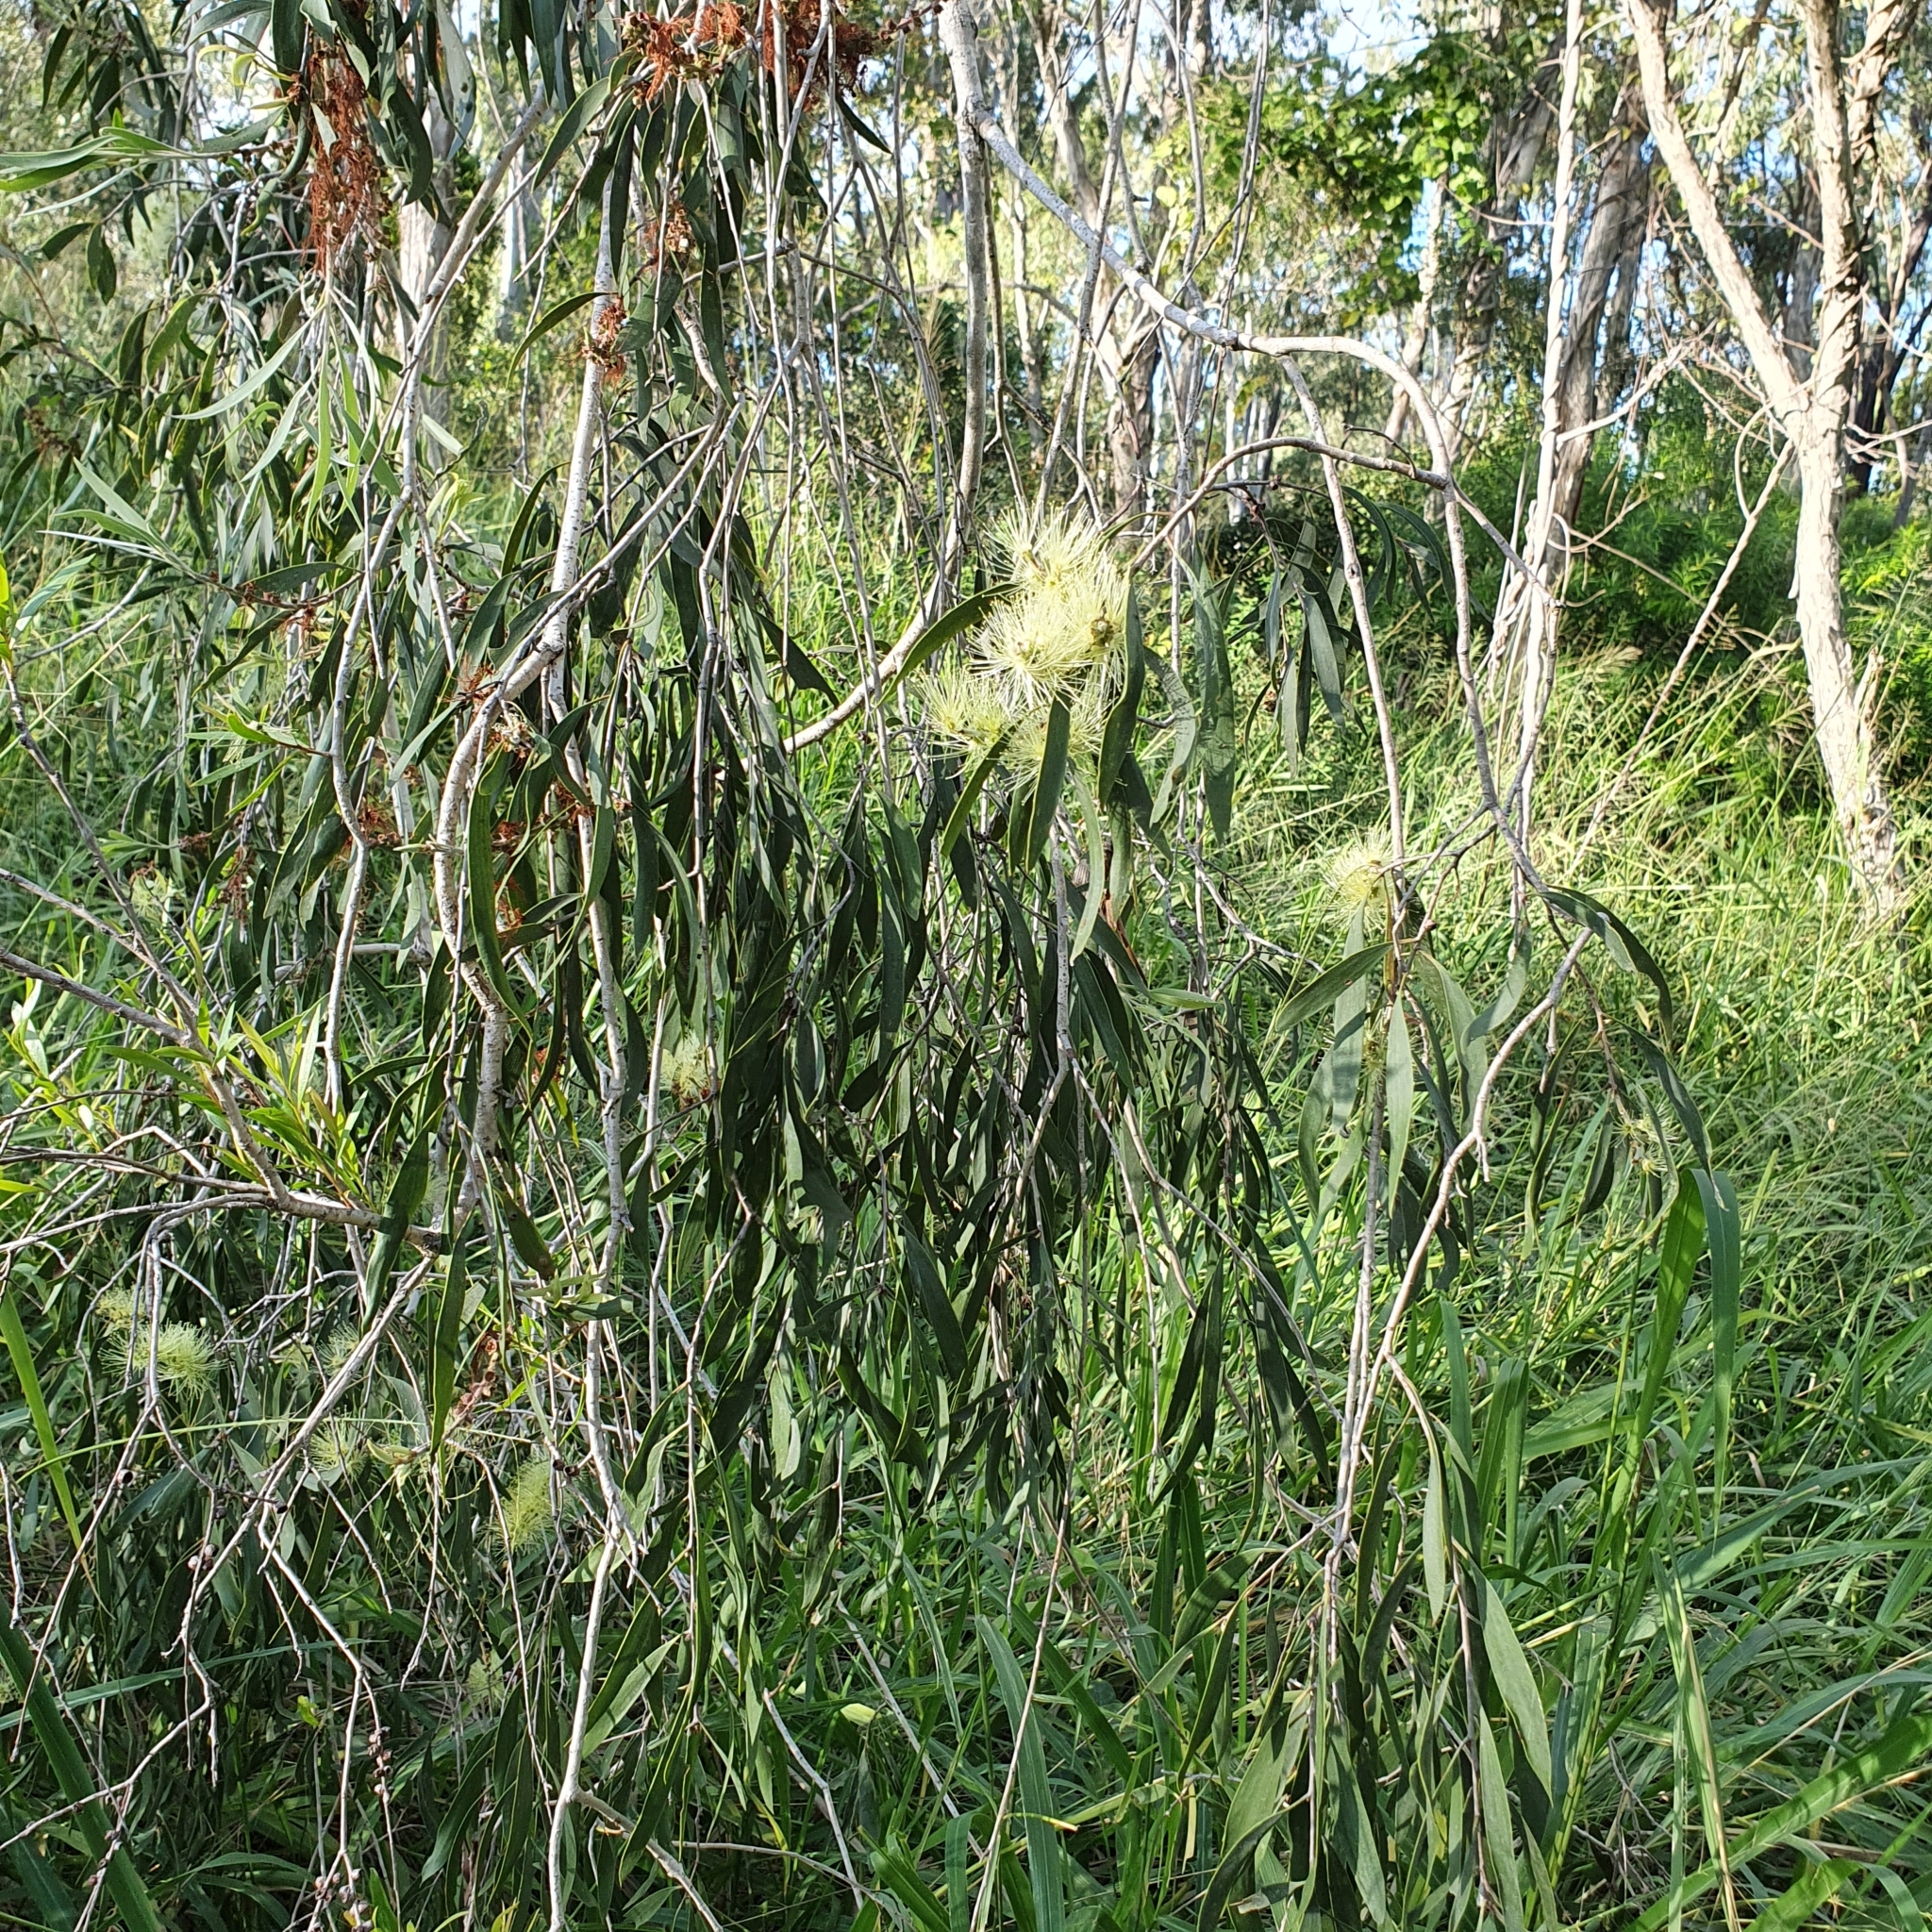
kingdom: Plantae
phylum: Tracheophyta
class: Magnoliopsida
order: Myrtales
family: Myrtaceae
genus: Melaleuca
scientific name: Melaleuca fluviatilis
